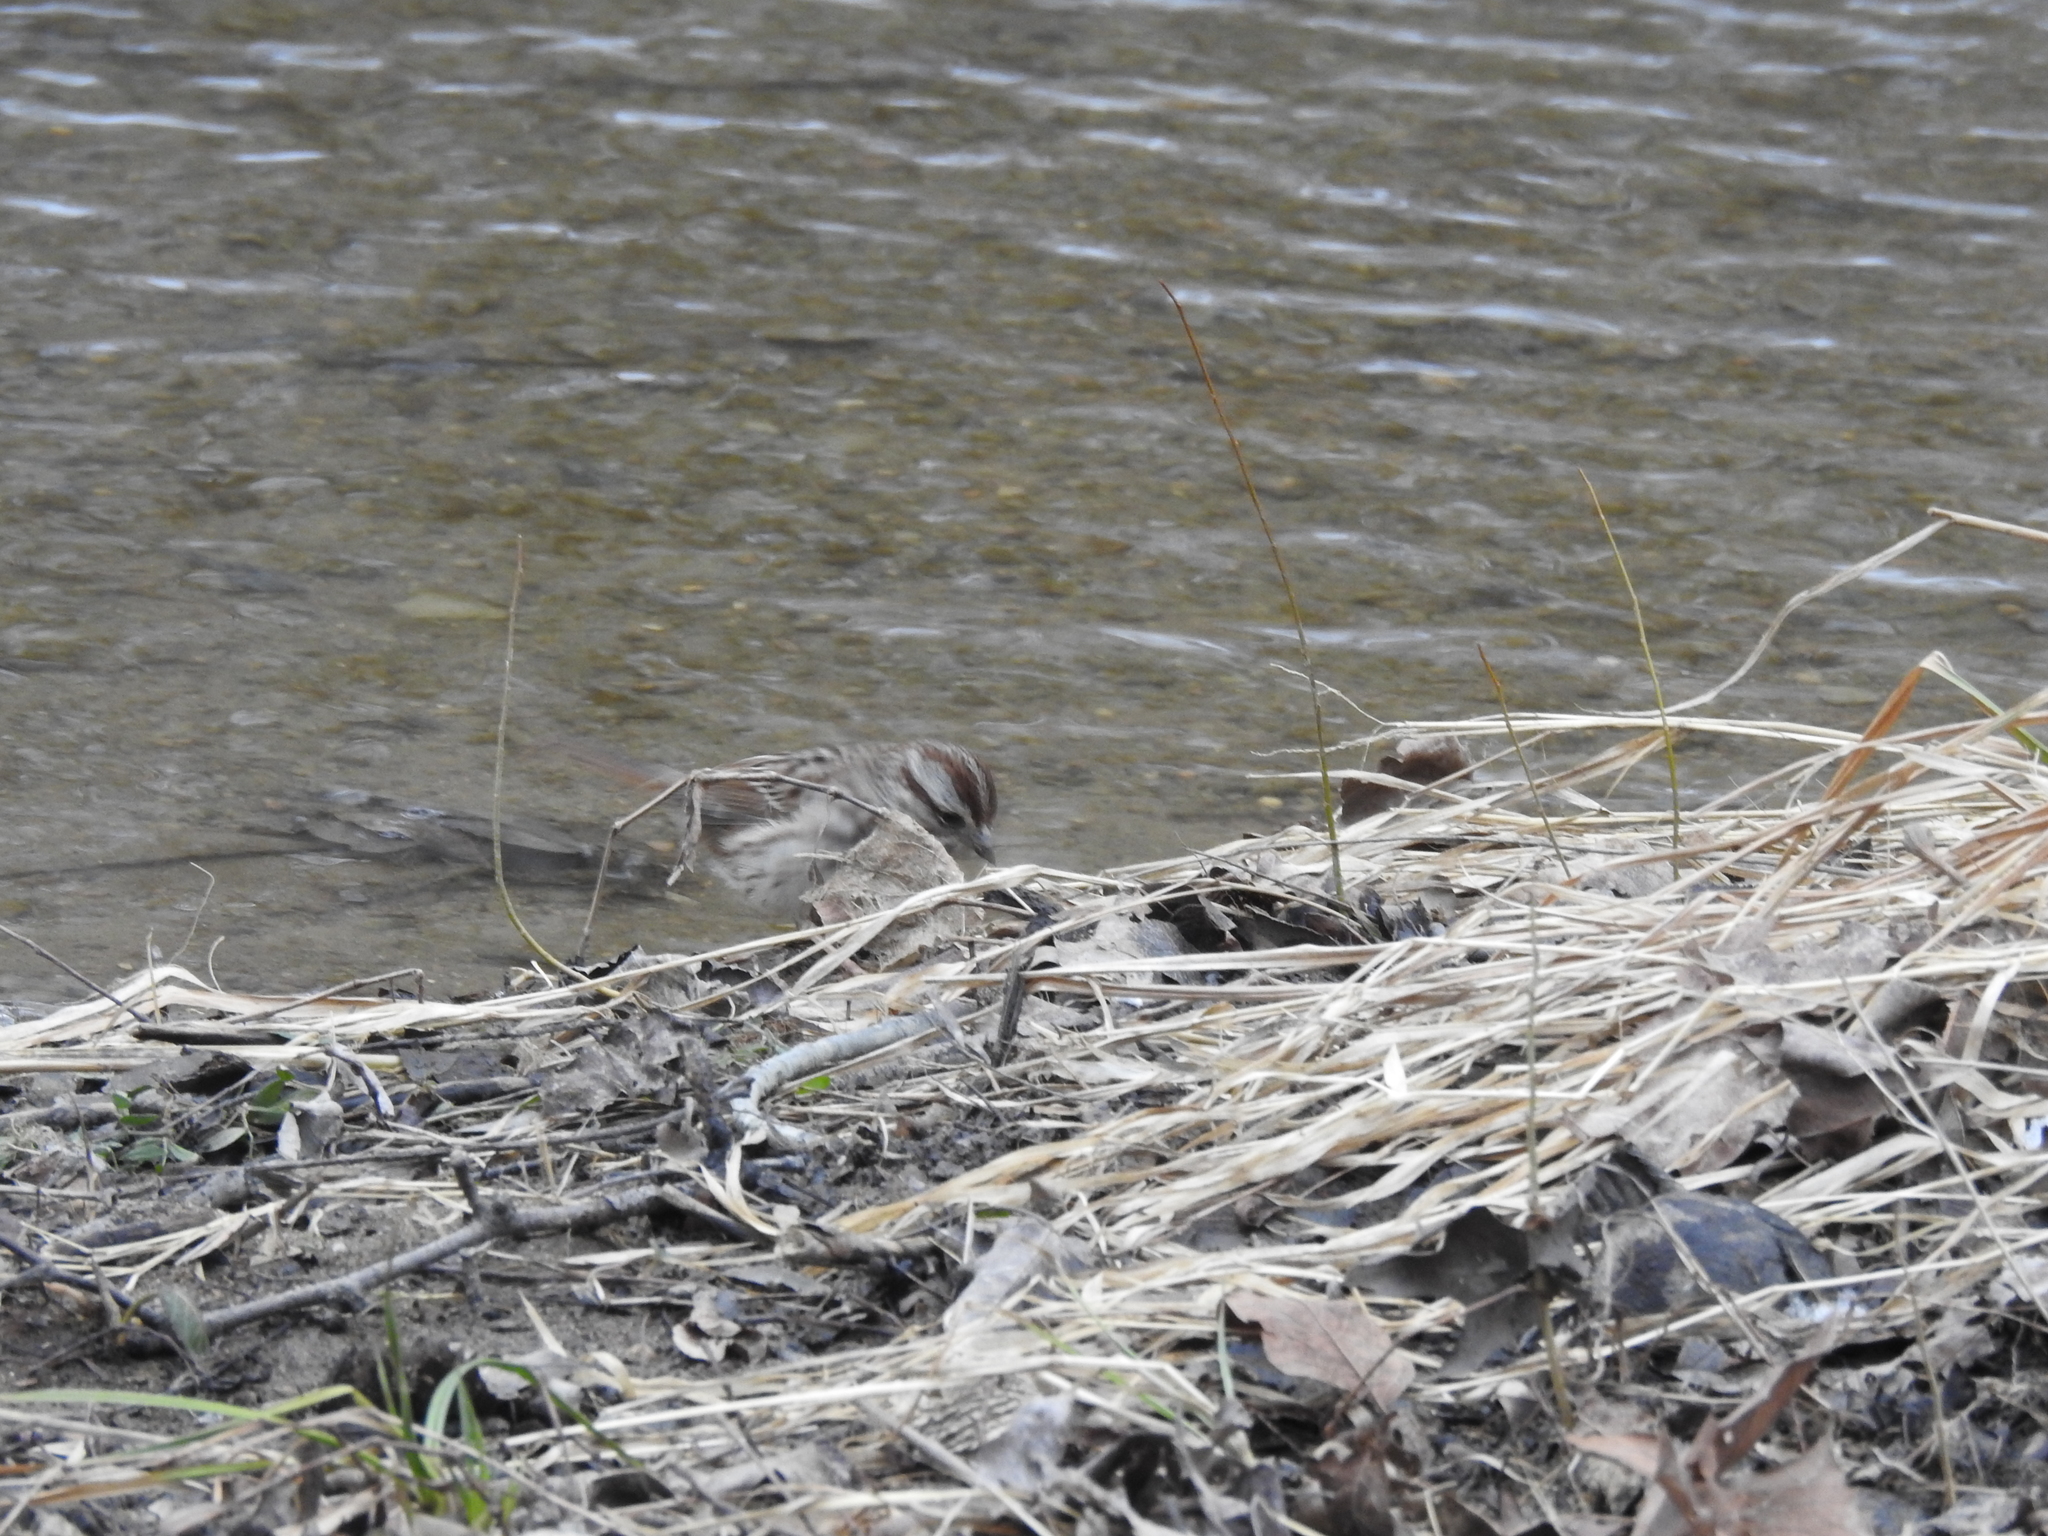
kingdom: Animalia
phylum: Chordata
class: Aves
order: Passeriformes
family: Passerellidae
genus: Melospiza
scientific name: Melospiza melodia
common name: Song sparrow
